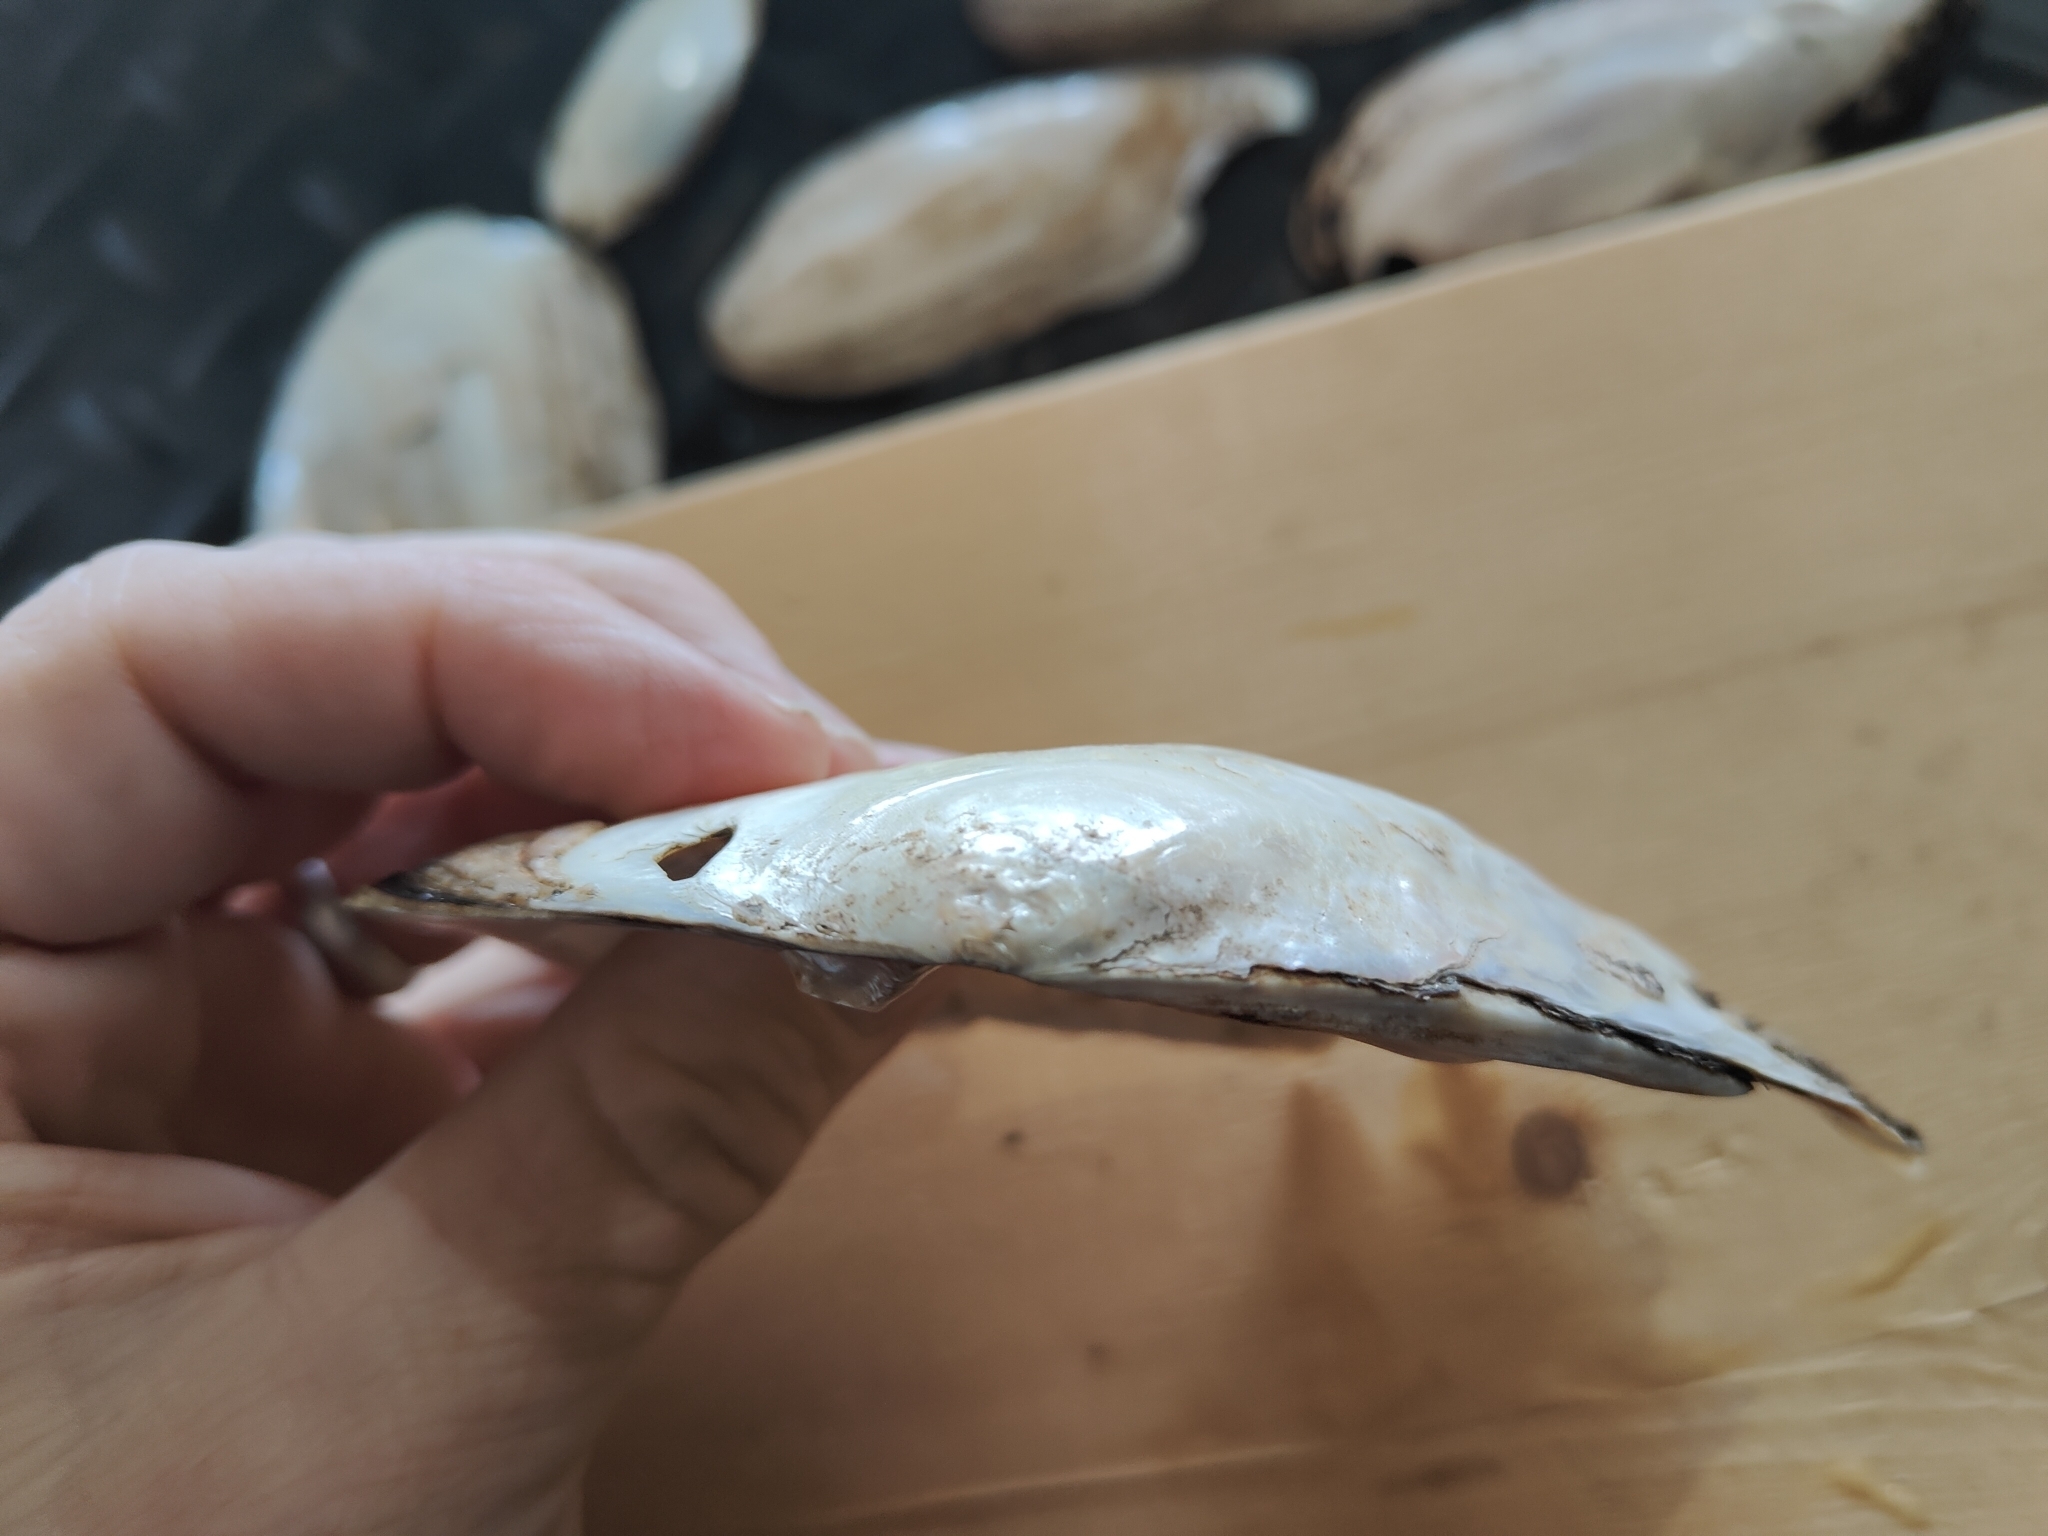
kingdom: Animalia
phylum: Mollusca
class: Bivalvia
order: Unionida
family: Unionidae
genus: Lasmigona
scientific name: Lasmigona complanata
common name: White heelsplitter
